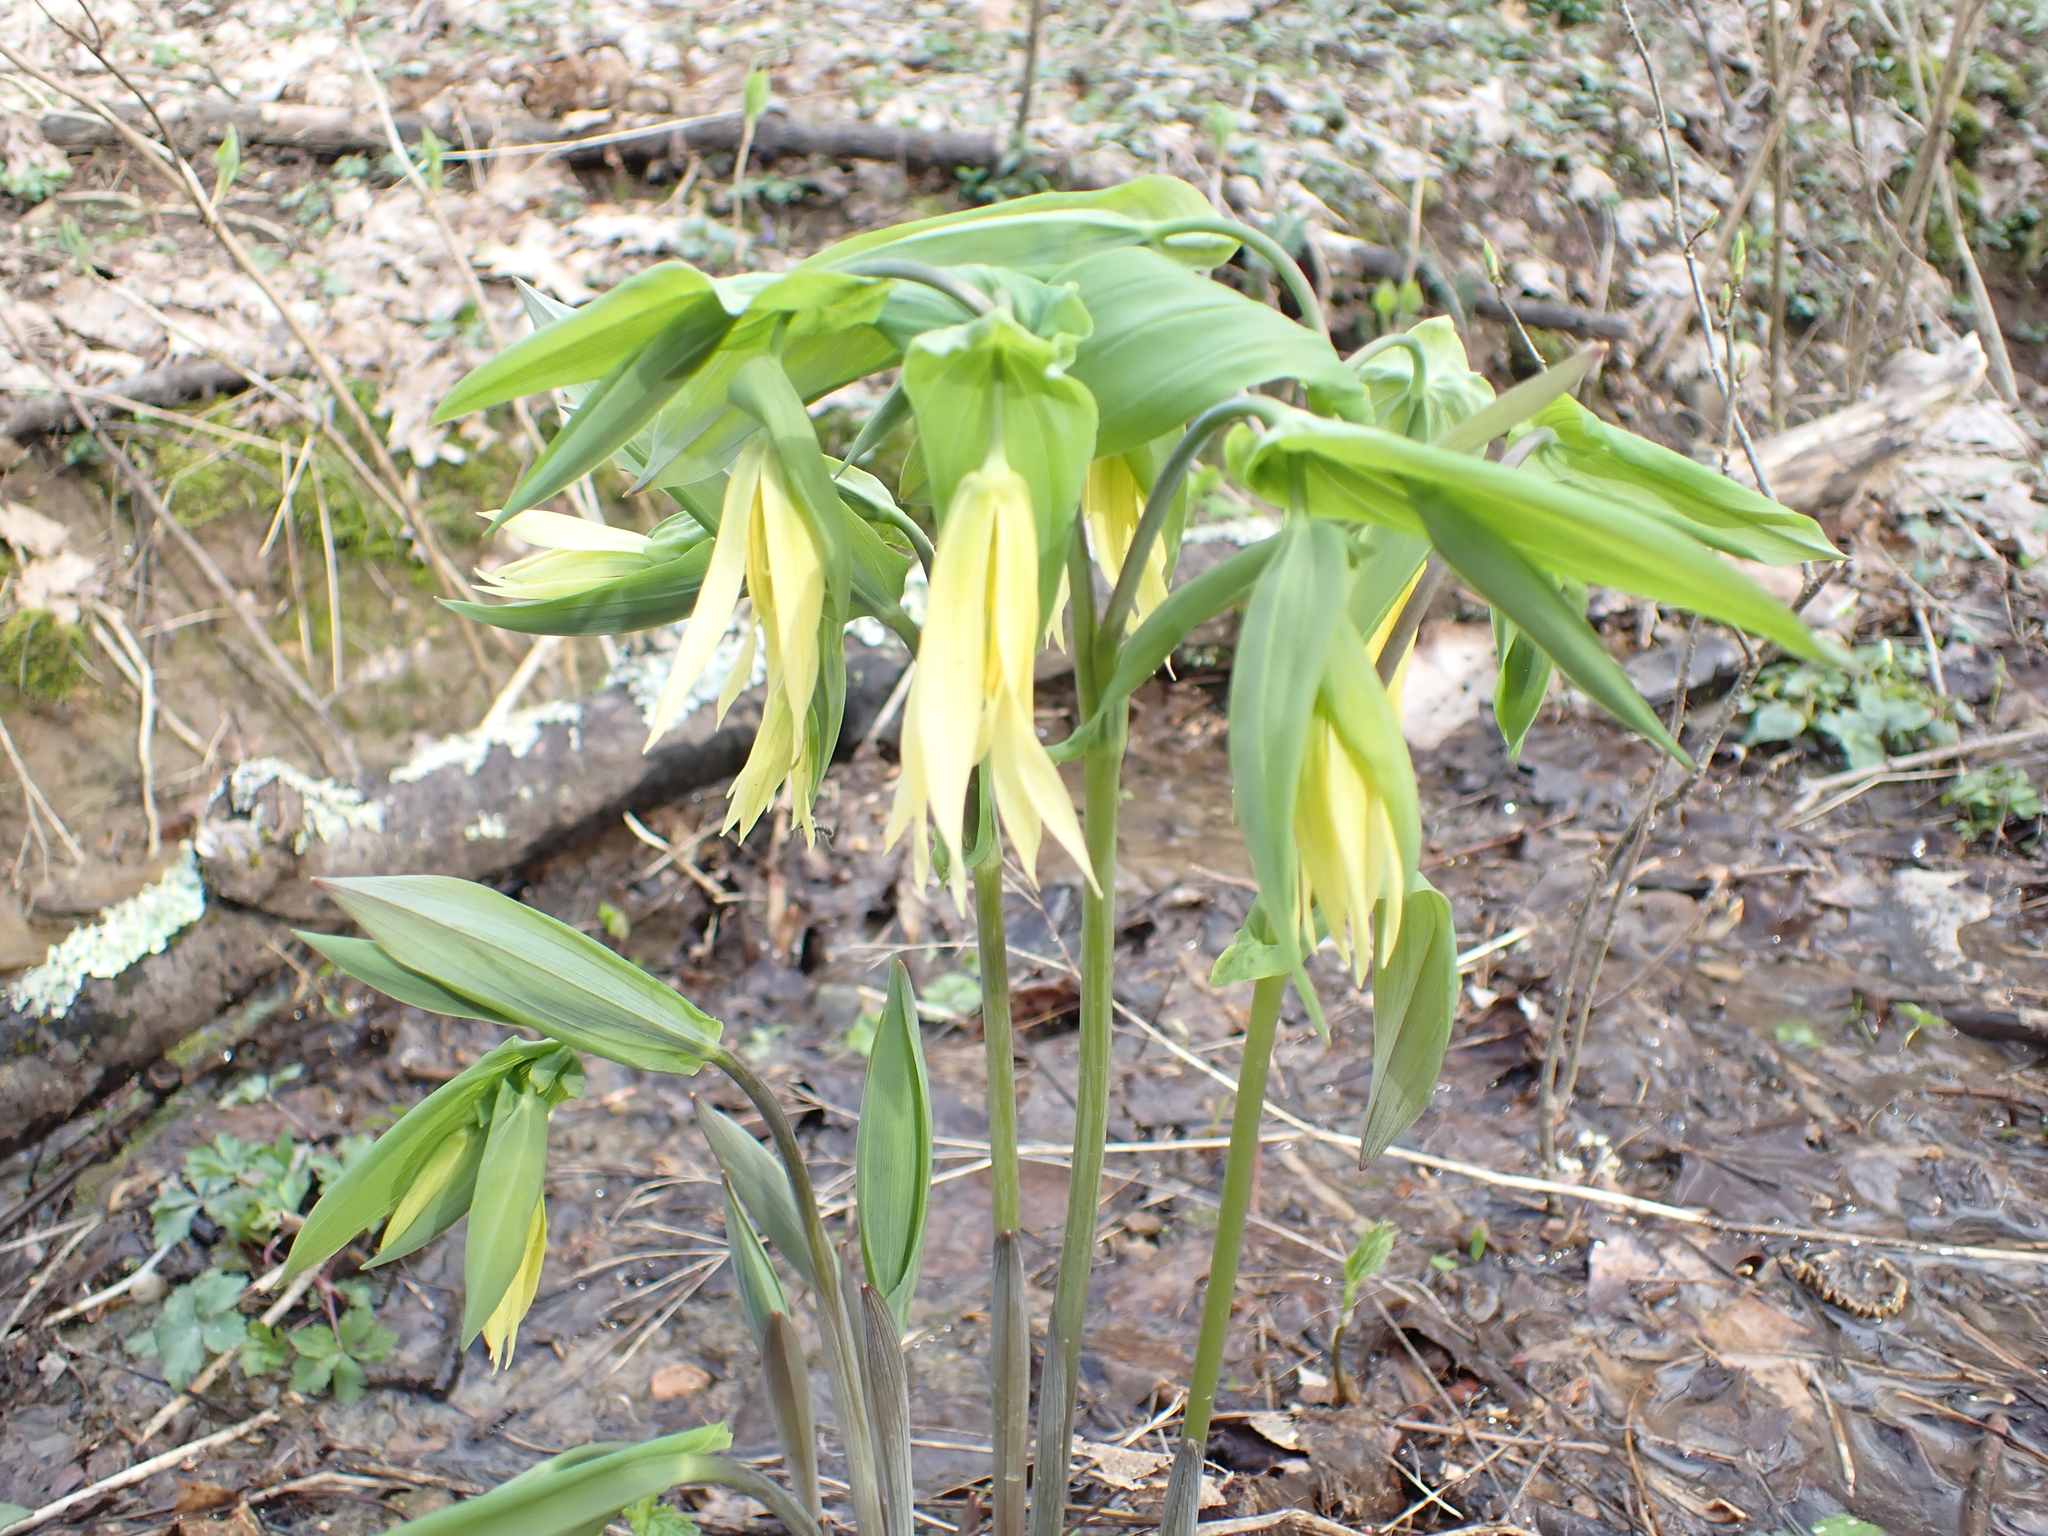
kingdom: Plantae
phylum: Tracheophyta
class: Liliopsida
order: Liliales
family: Colchicaceae
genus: Uvularia
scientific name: Uvularia grandiflora
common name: Bellwort
